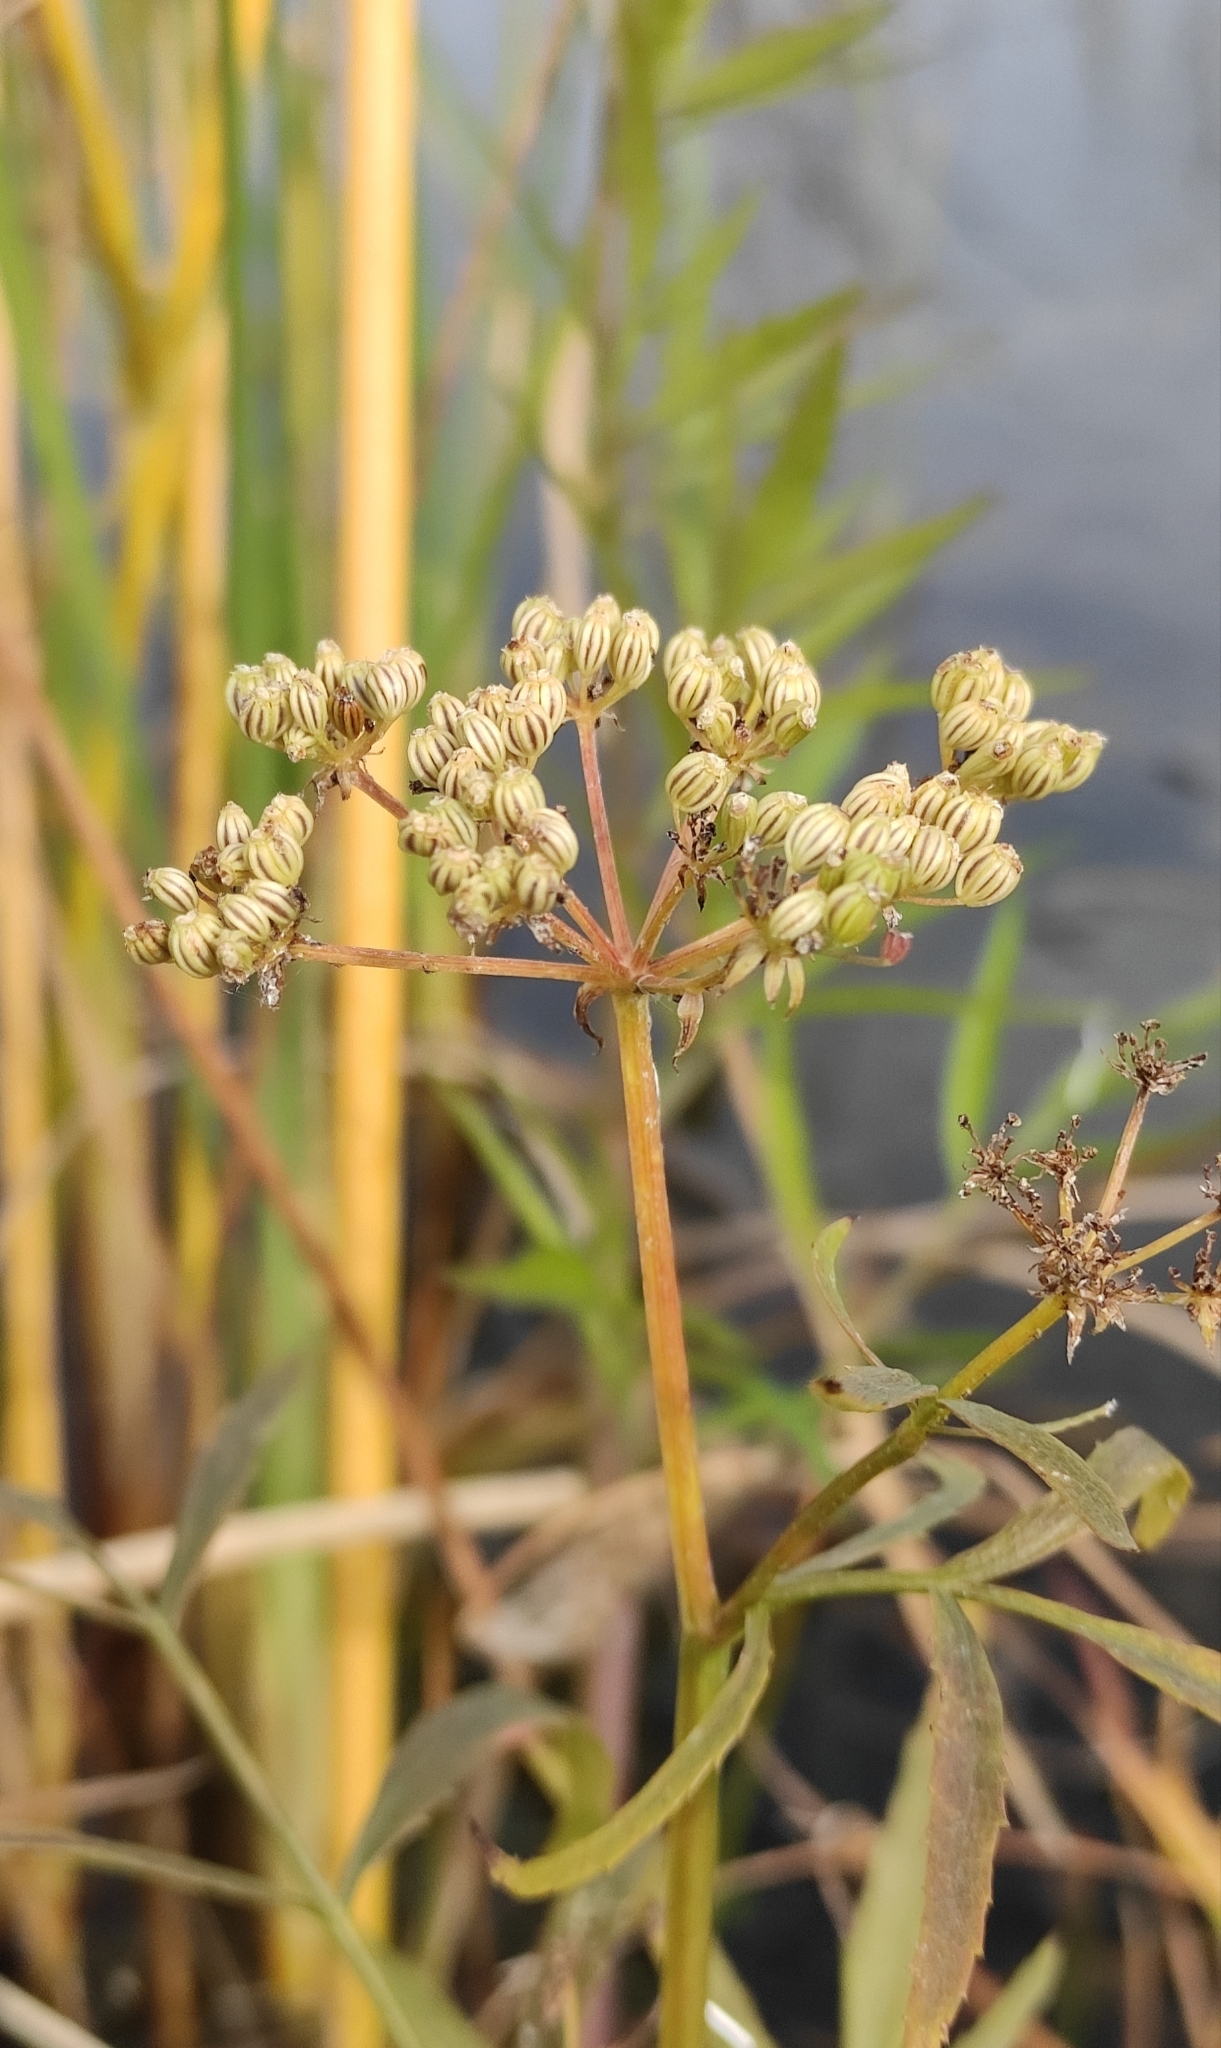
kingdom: Plantae
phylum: Tracheophyta
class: Magnoliopsida
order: Apiales
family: Apiaceae
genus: Sium
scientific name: Sium suave
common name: Hemlock water-parsnip
